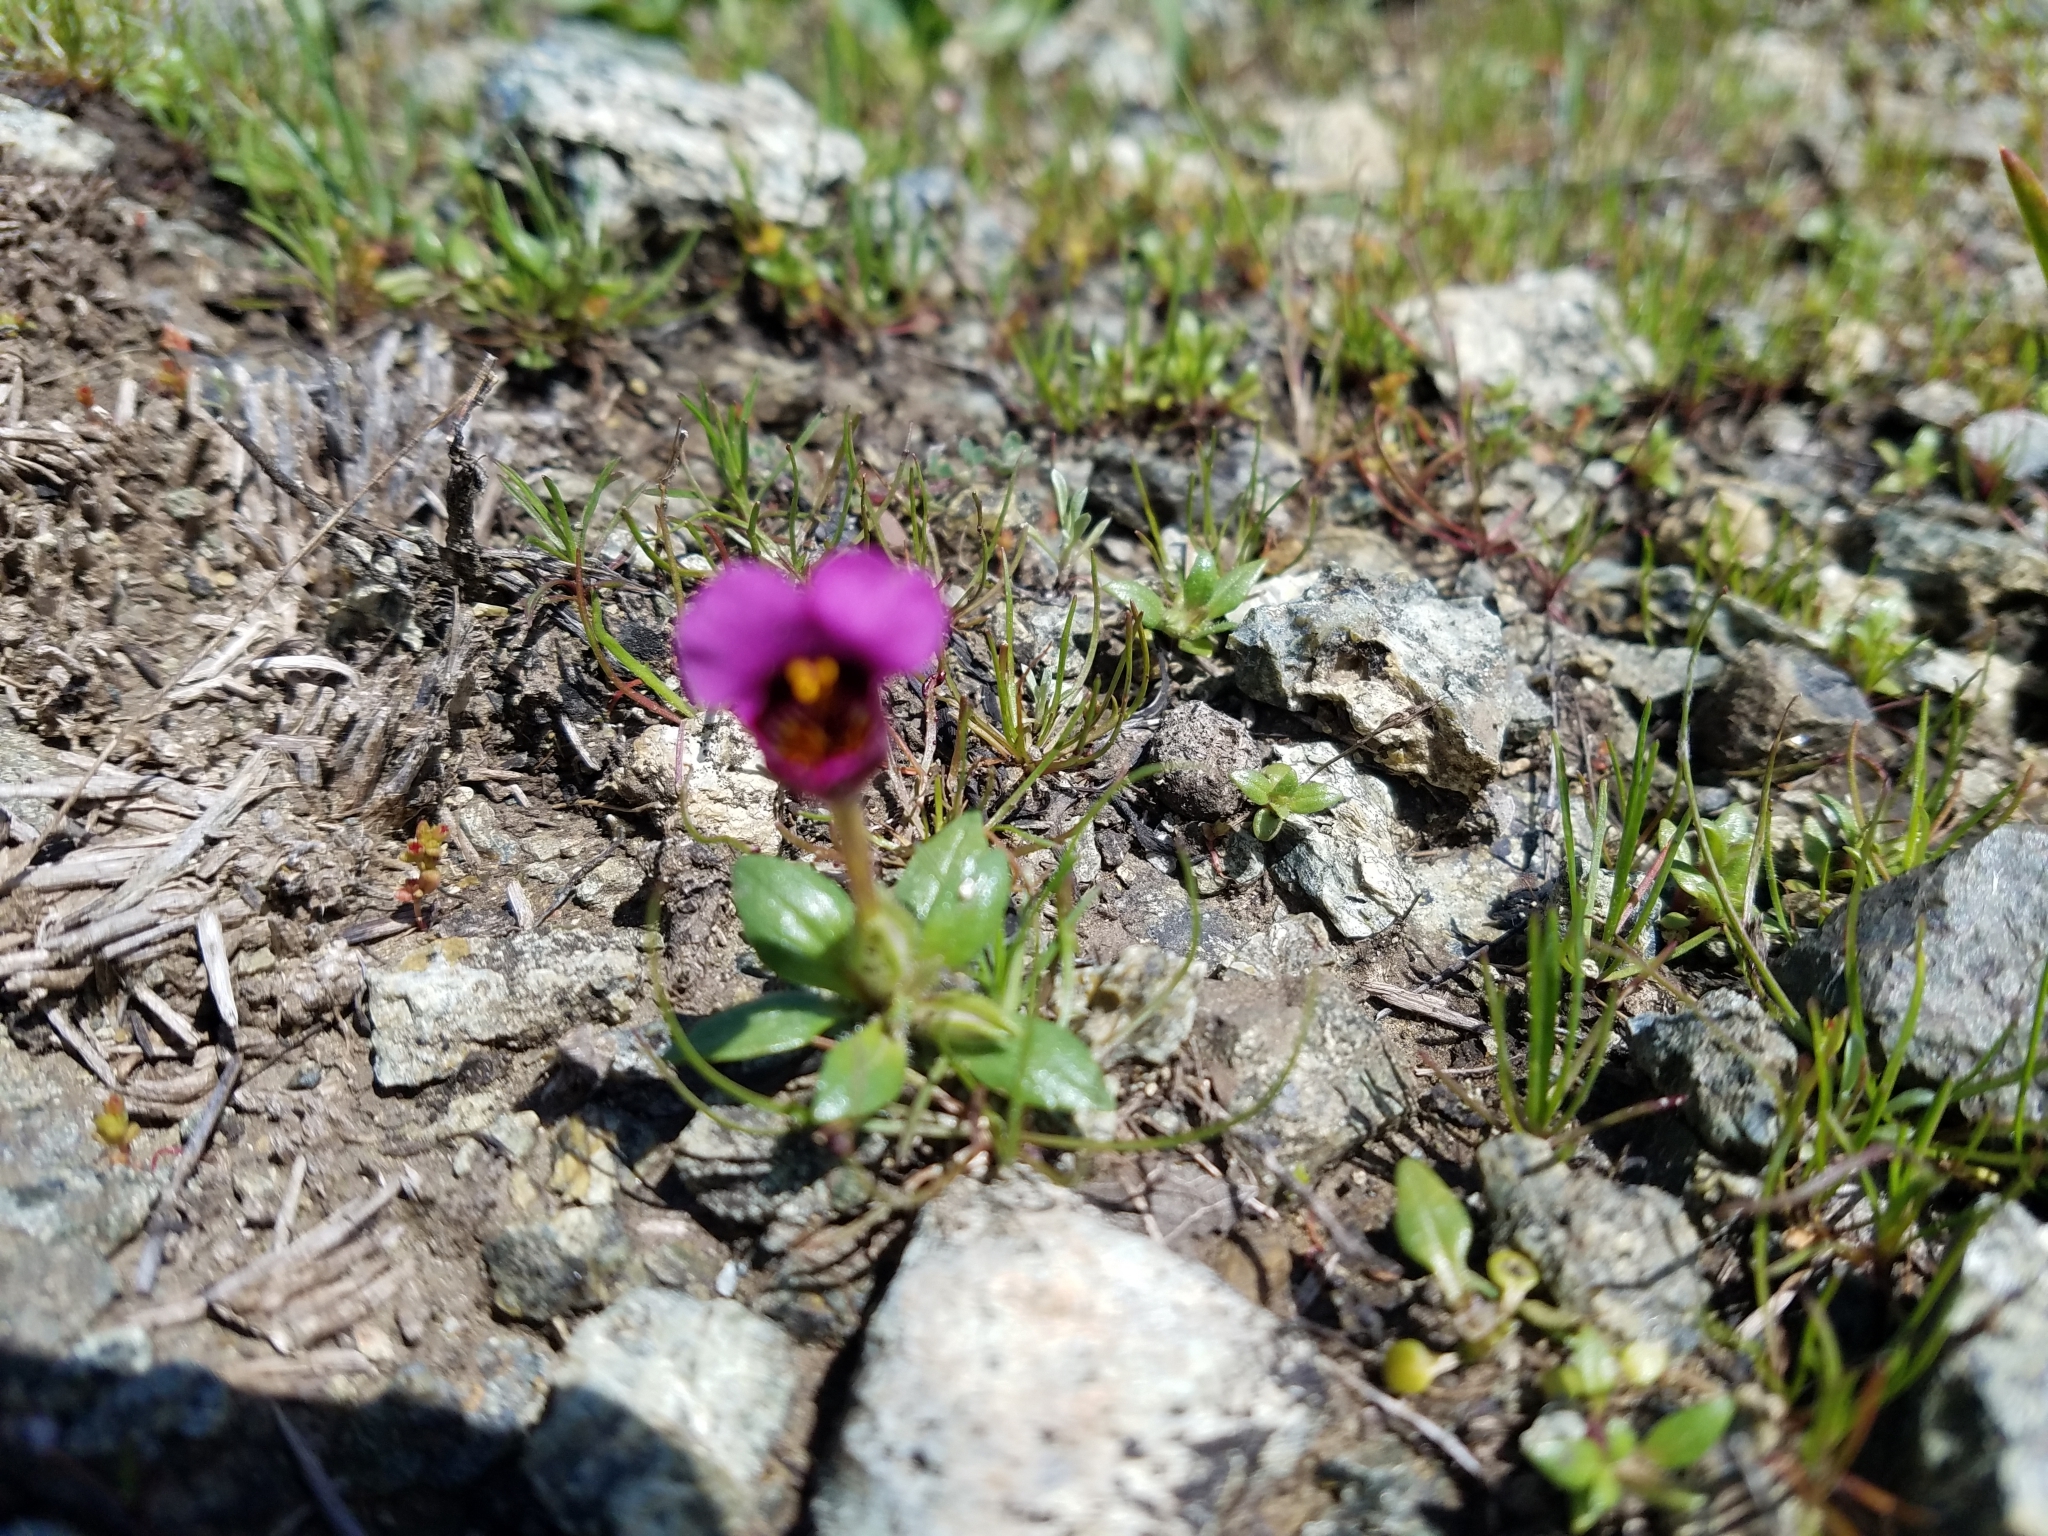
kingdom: Plantae
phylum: Tracheophyta
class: Magnoliopsida
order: Lamiales
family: Phrymaceae
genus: Diplacus
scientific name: Diplacus douglasii
